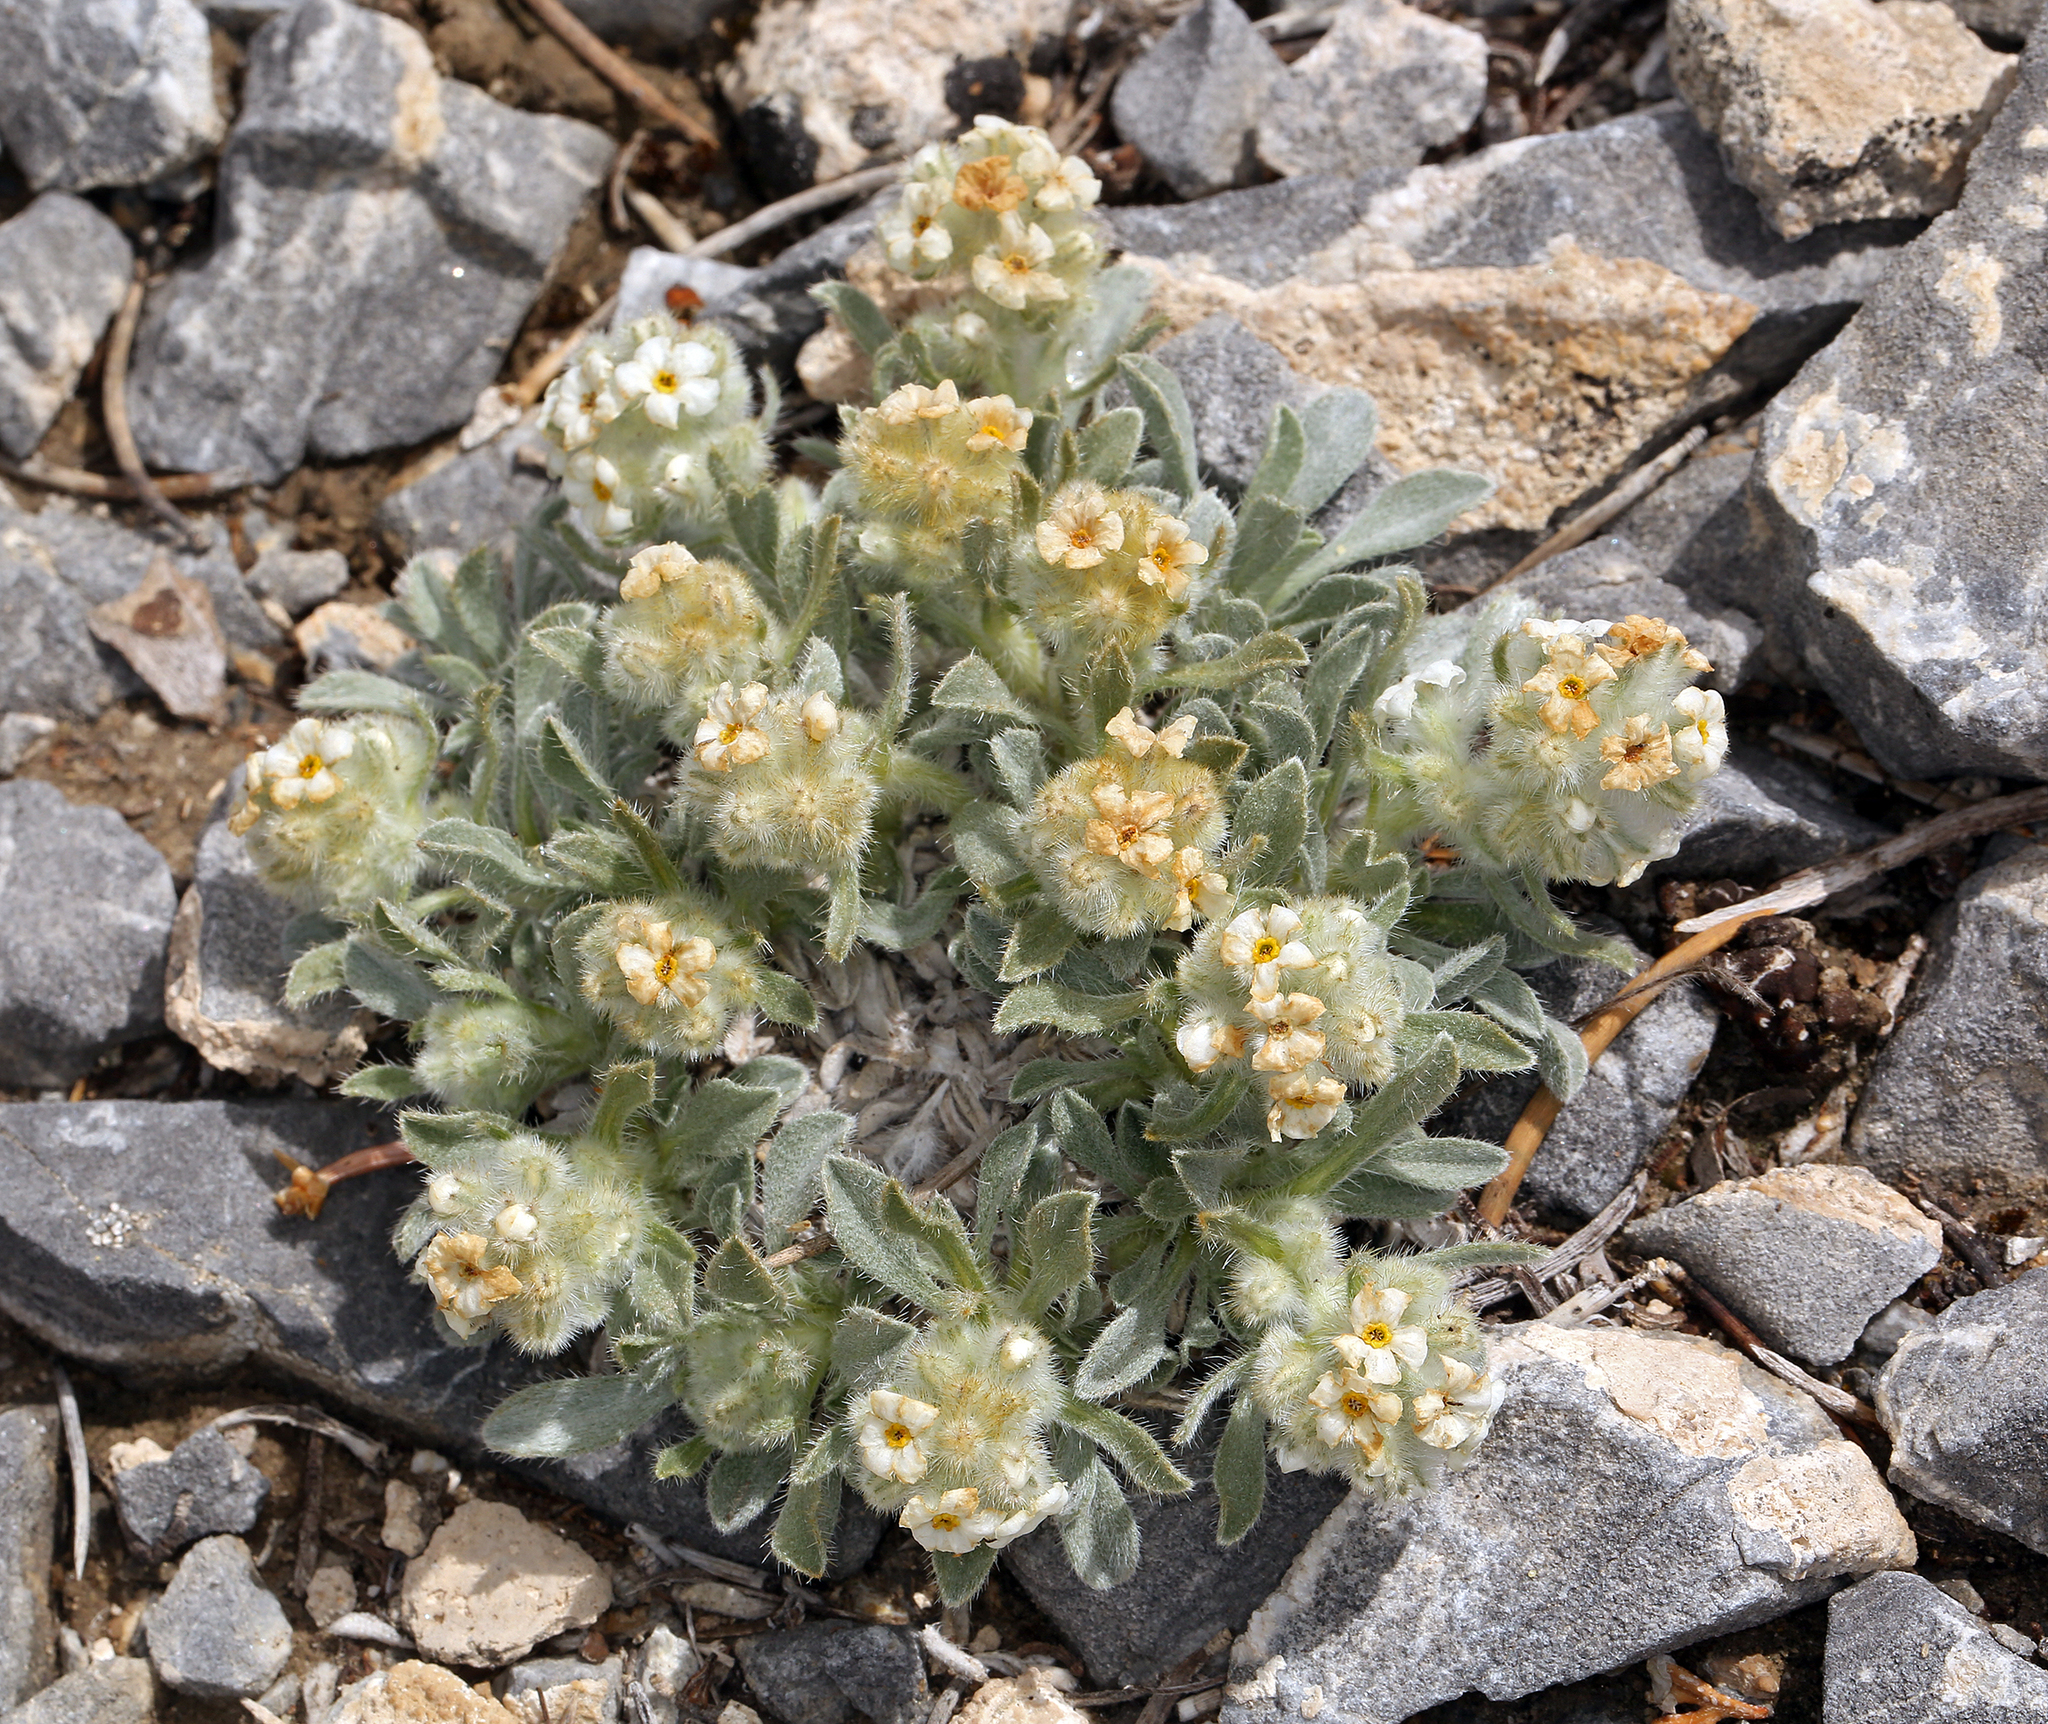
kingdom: Plantae
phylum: Tracheophyta
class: Magnoliopsida
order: Boraginales
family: Boraginaceae
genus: Oreocarya
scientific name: Oreocarya humilis
